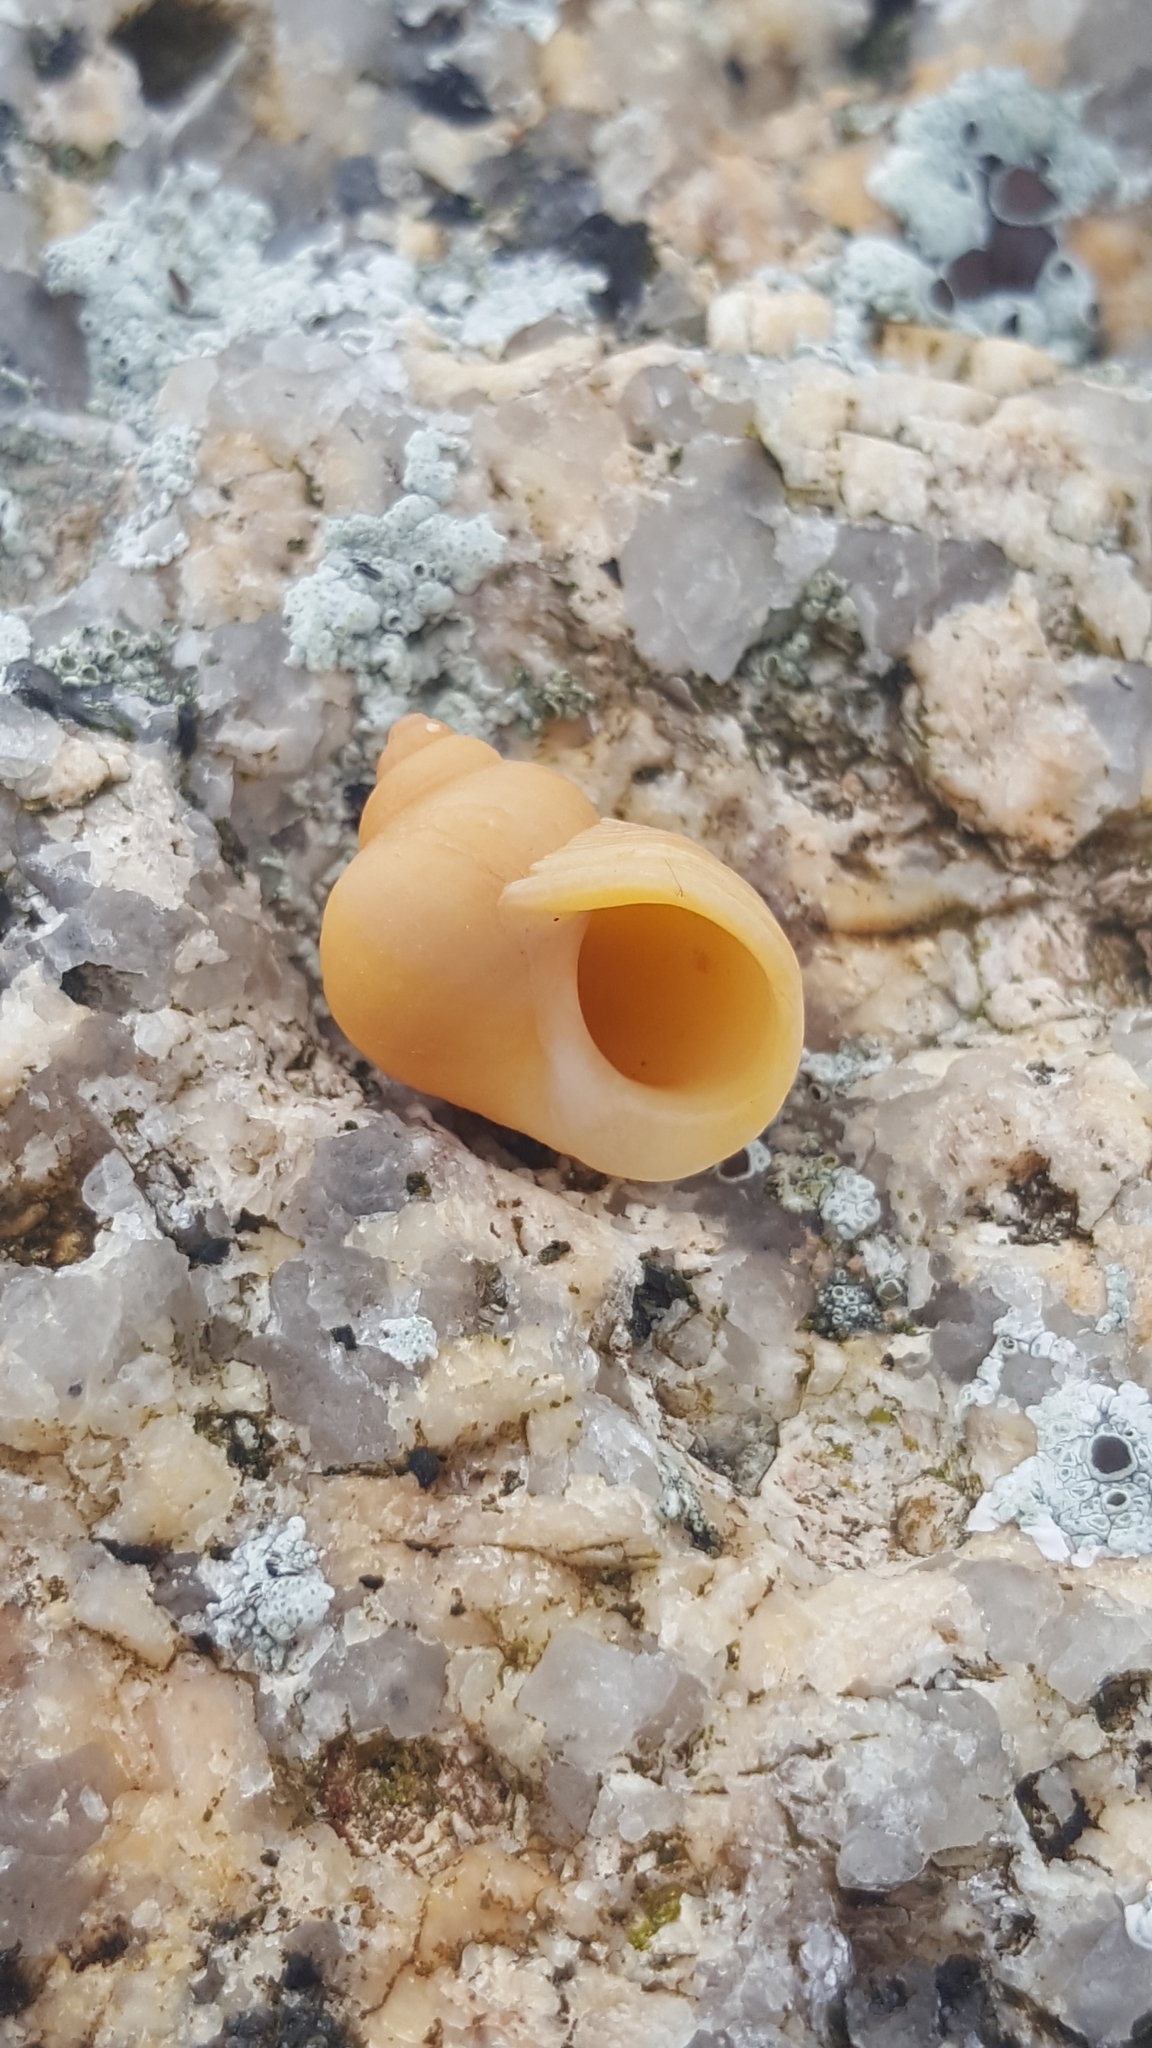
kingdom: Animalia
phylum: Mollusca
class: Gastropoda
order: Littorinimorpha
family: Littorinidae
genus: Littorina
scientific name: Littorina saxatilis
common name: Black-lined periwinkle
